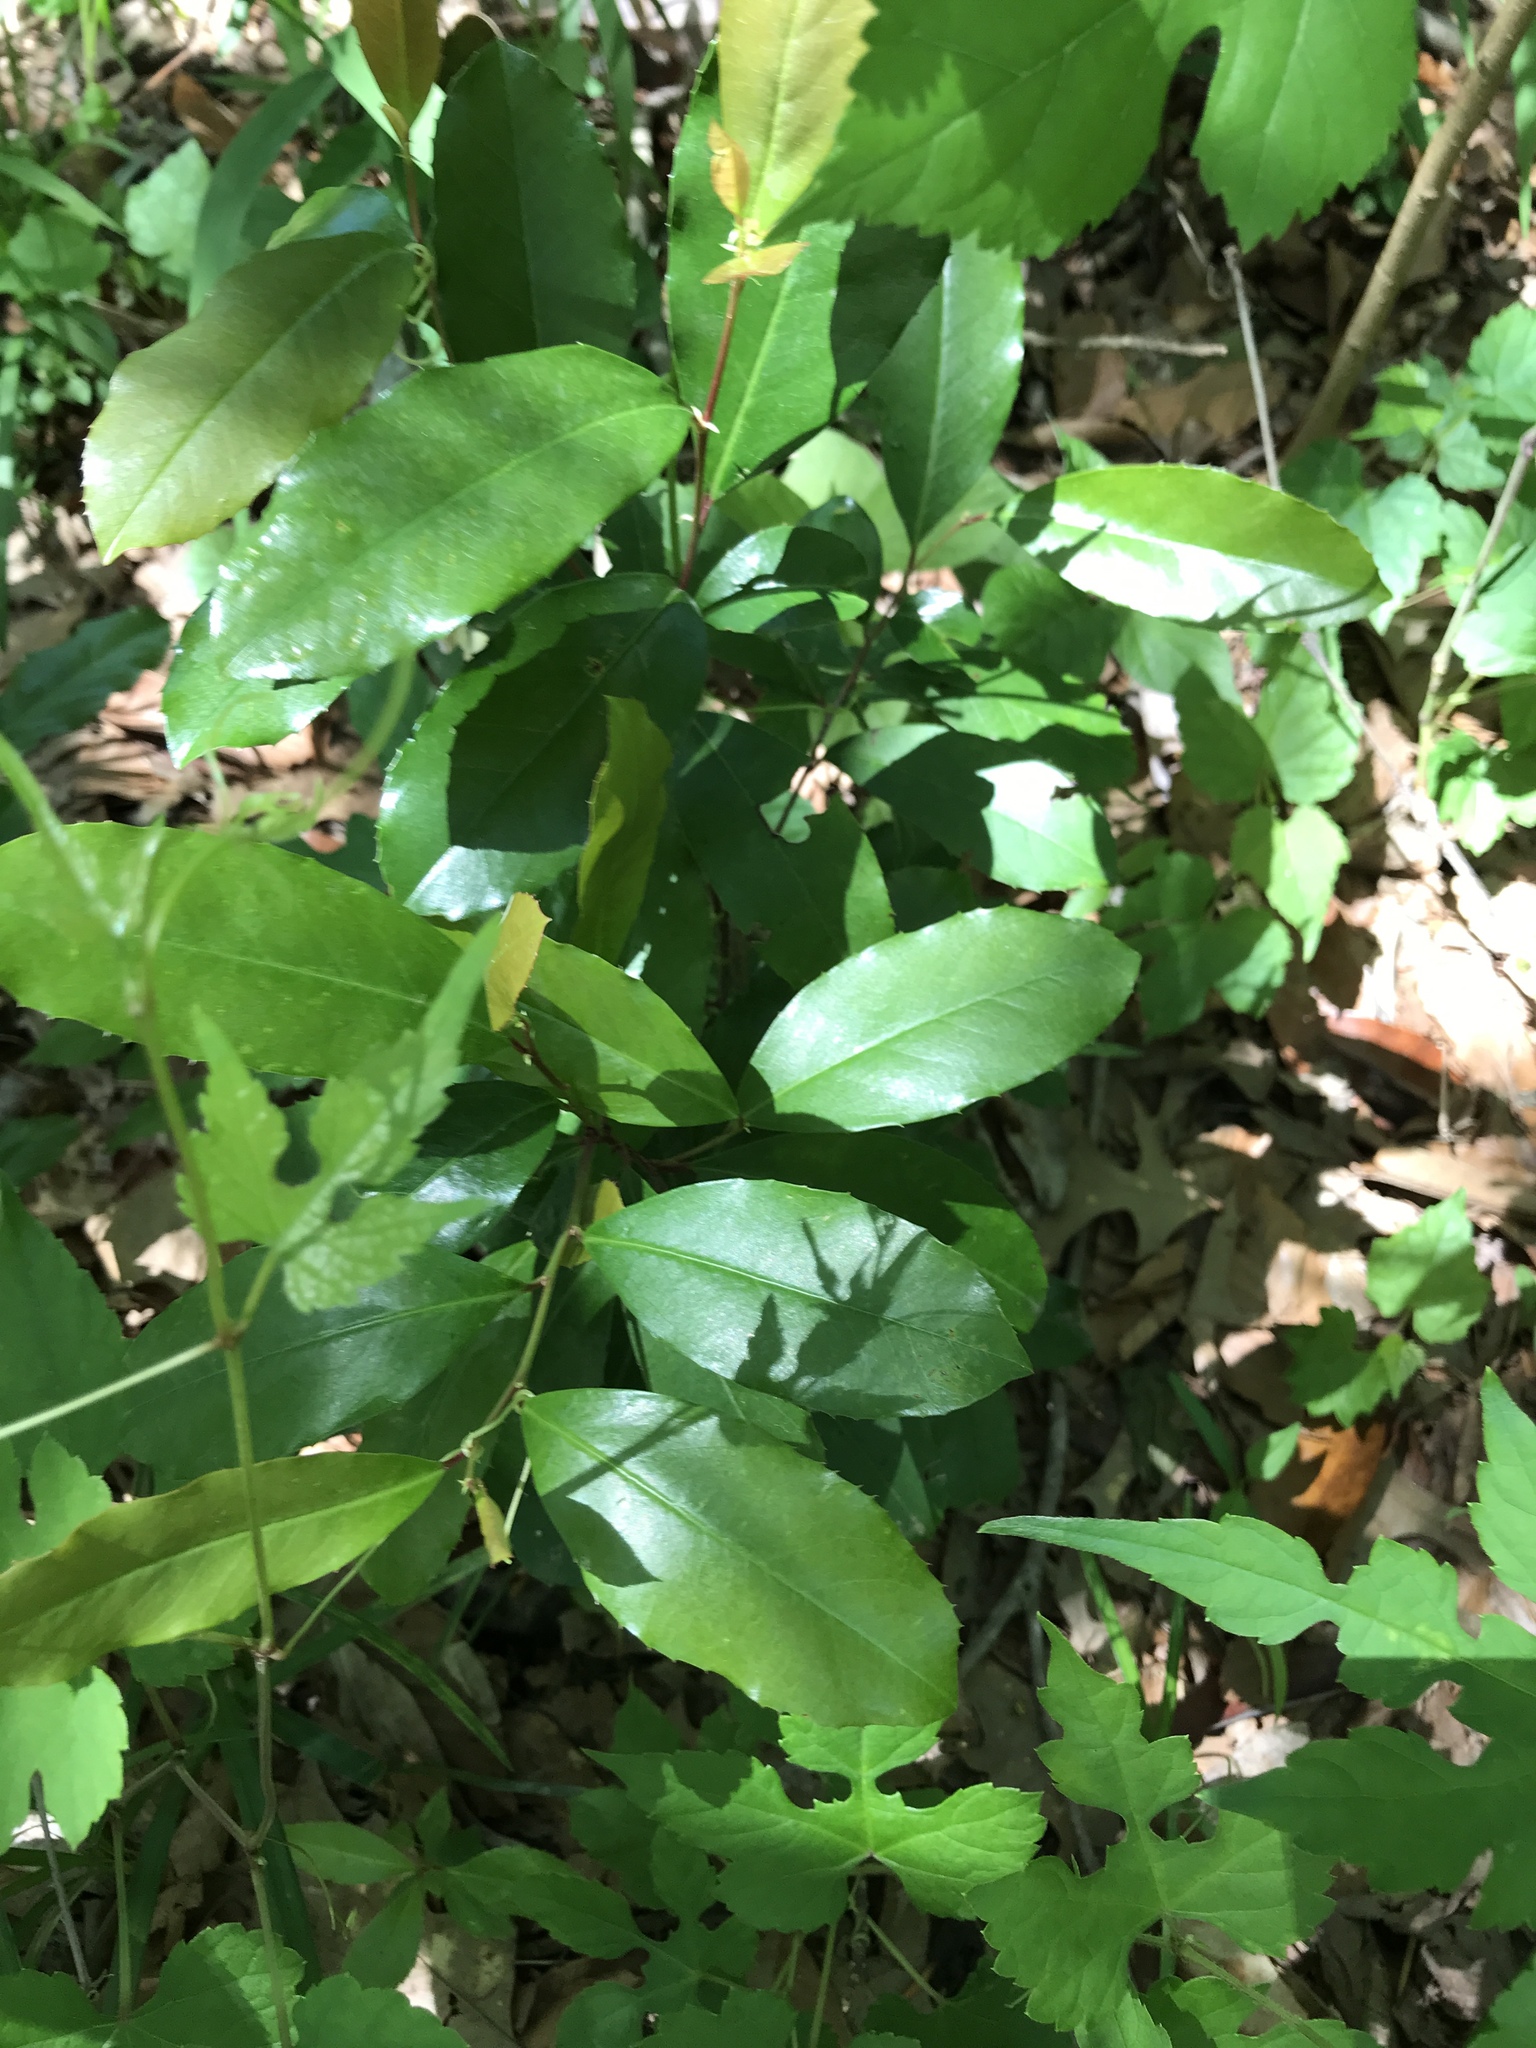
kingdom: Plantae
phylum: Tracheophyta
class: Magnoliopsida
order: Rosales
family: Rosaceae
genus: Prunus
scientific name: Prunus caroliniana
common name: Carolina laurel cherry
